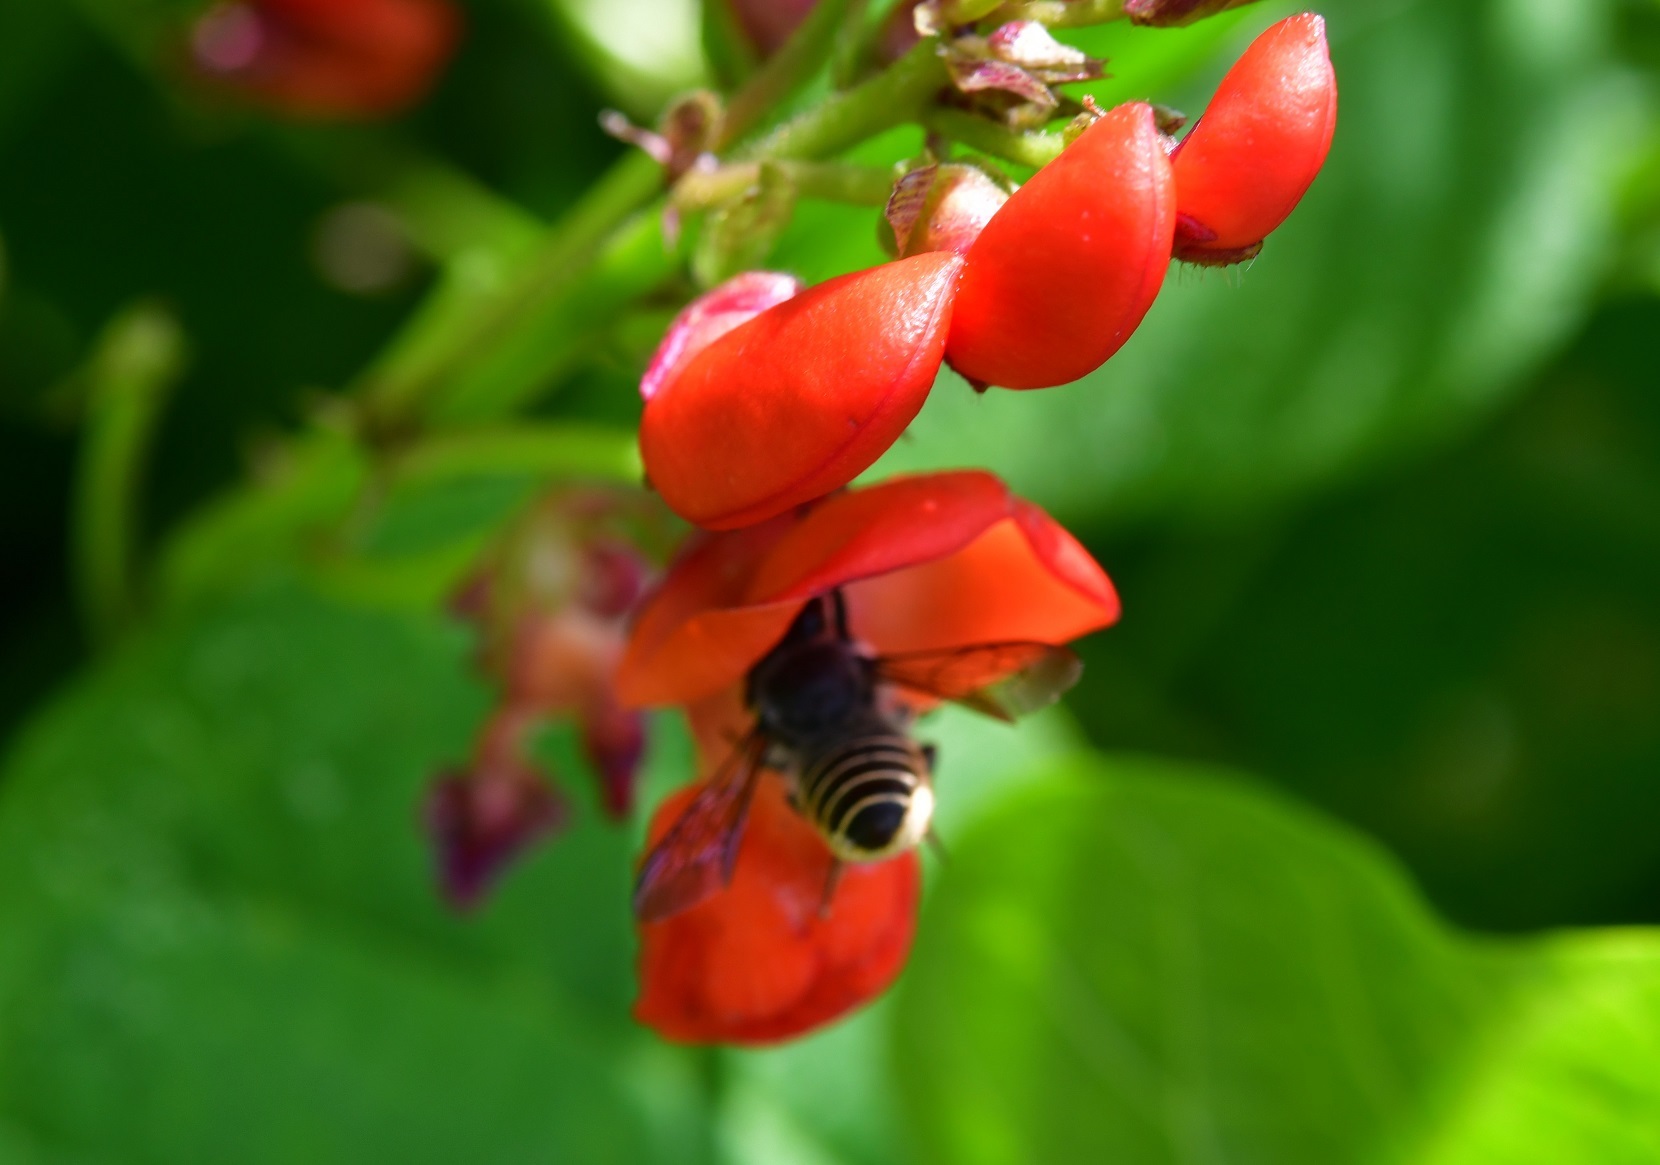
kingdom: Animalia
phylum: Arthropoda
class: Insecta
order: Hymenoptera
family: Megachilidae
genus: Megachile
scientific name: Megachile zapoteca
